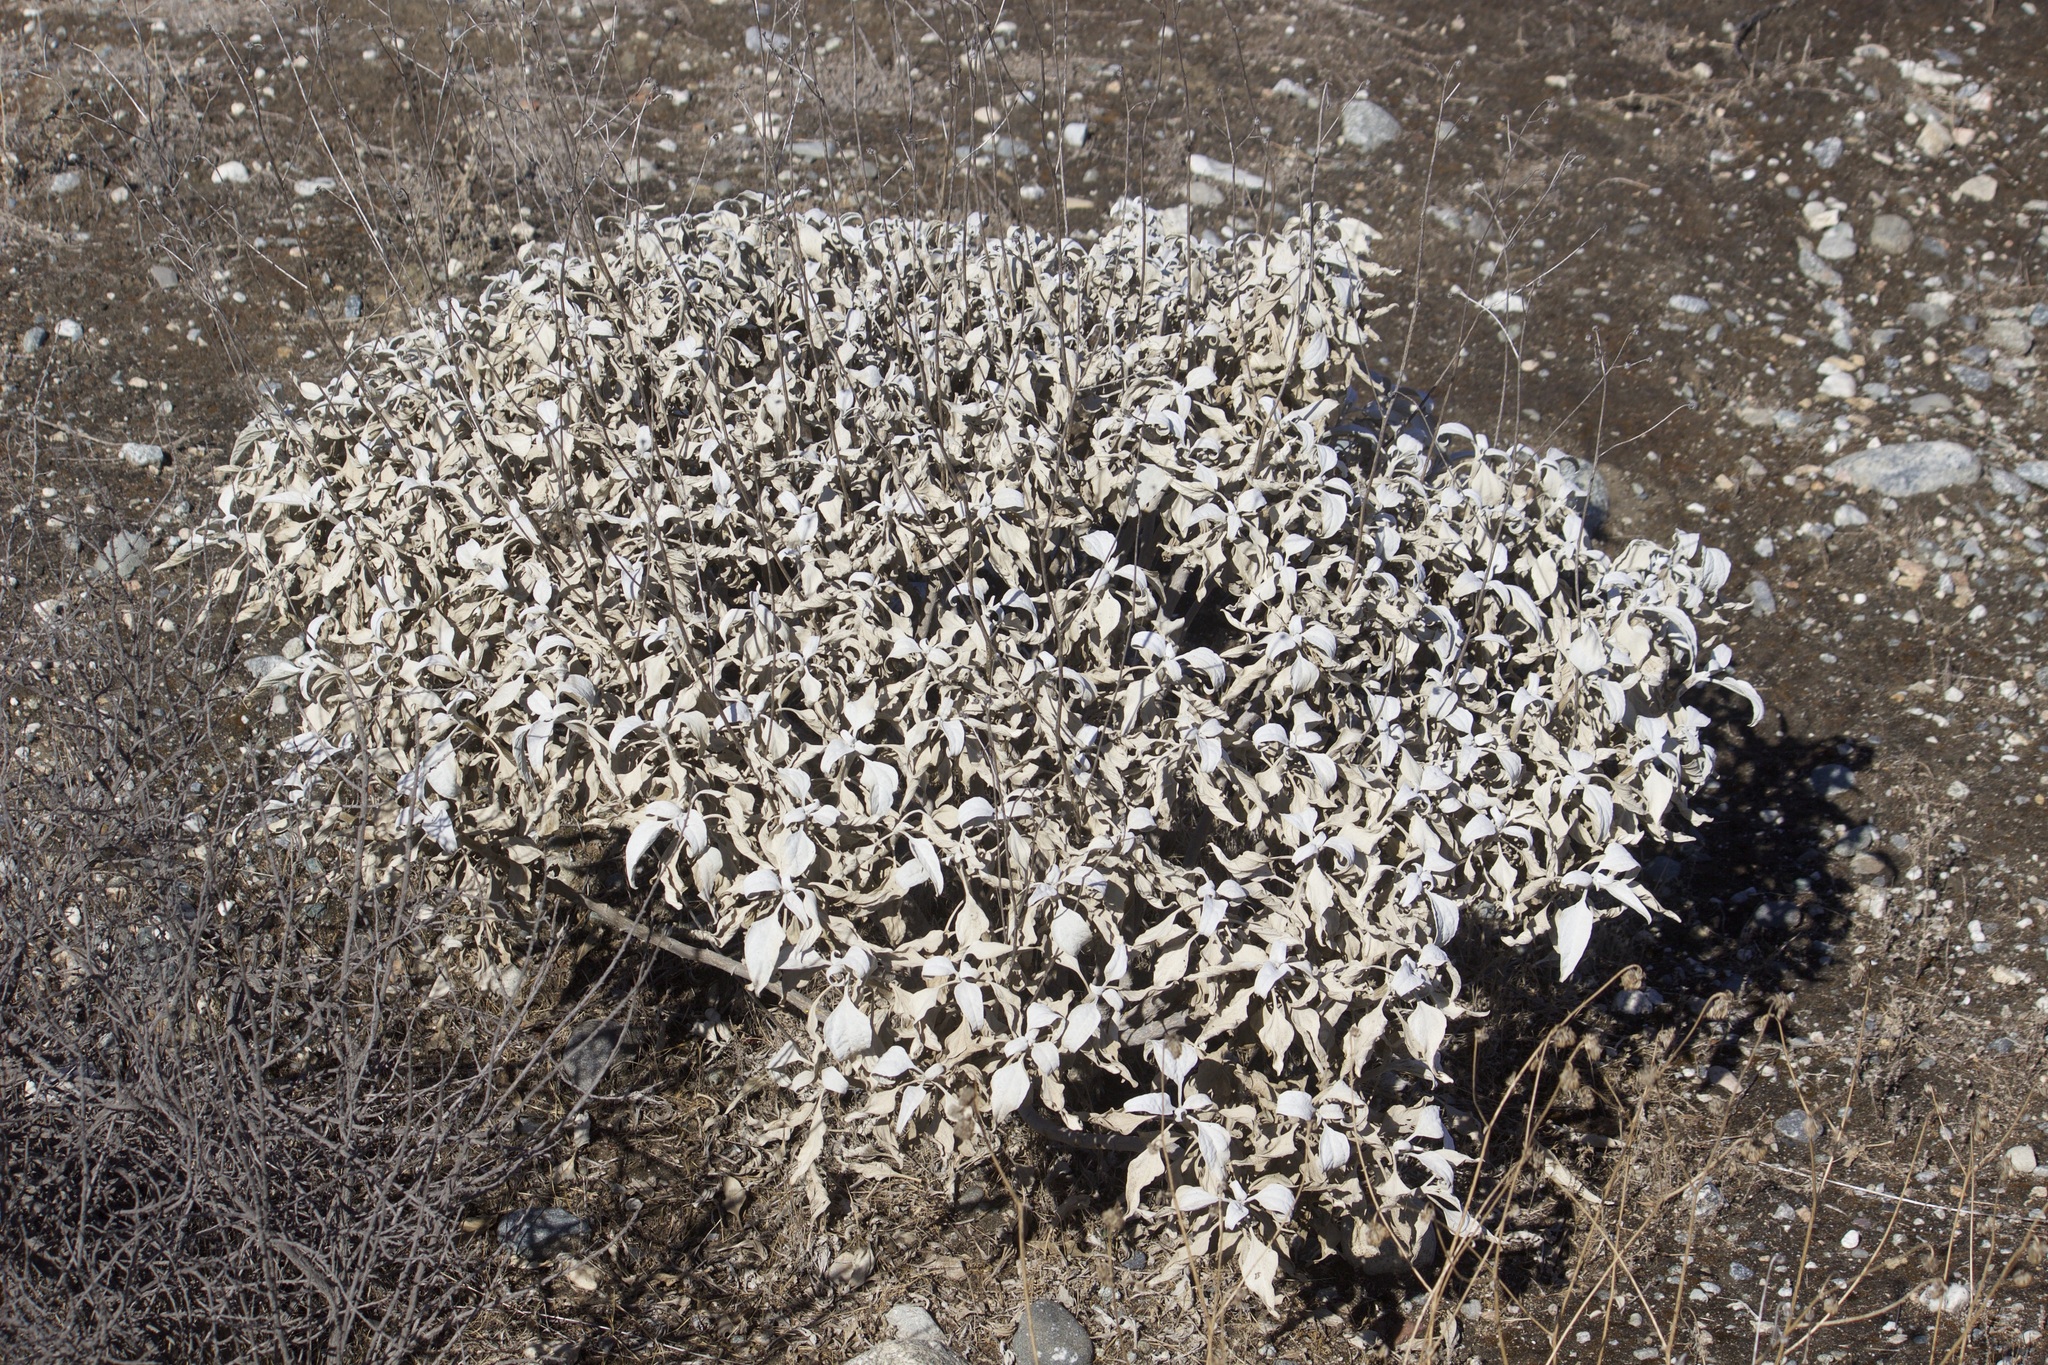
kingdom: Plantae
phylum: Tracheophyta
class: Magnoliopsida
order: Asterales
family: Asteraceae
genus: Encelia
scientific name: Encelia farinosa
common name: Brittlebush
